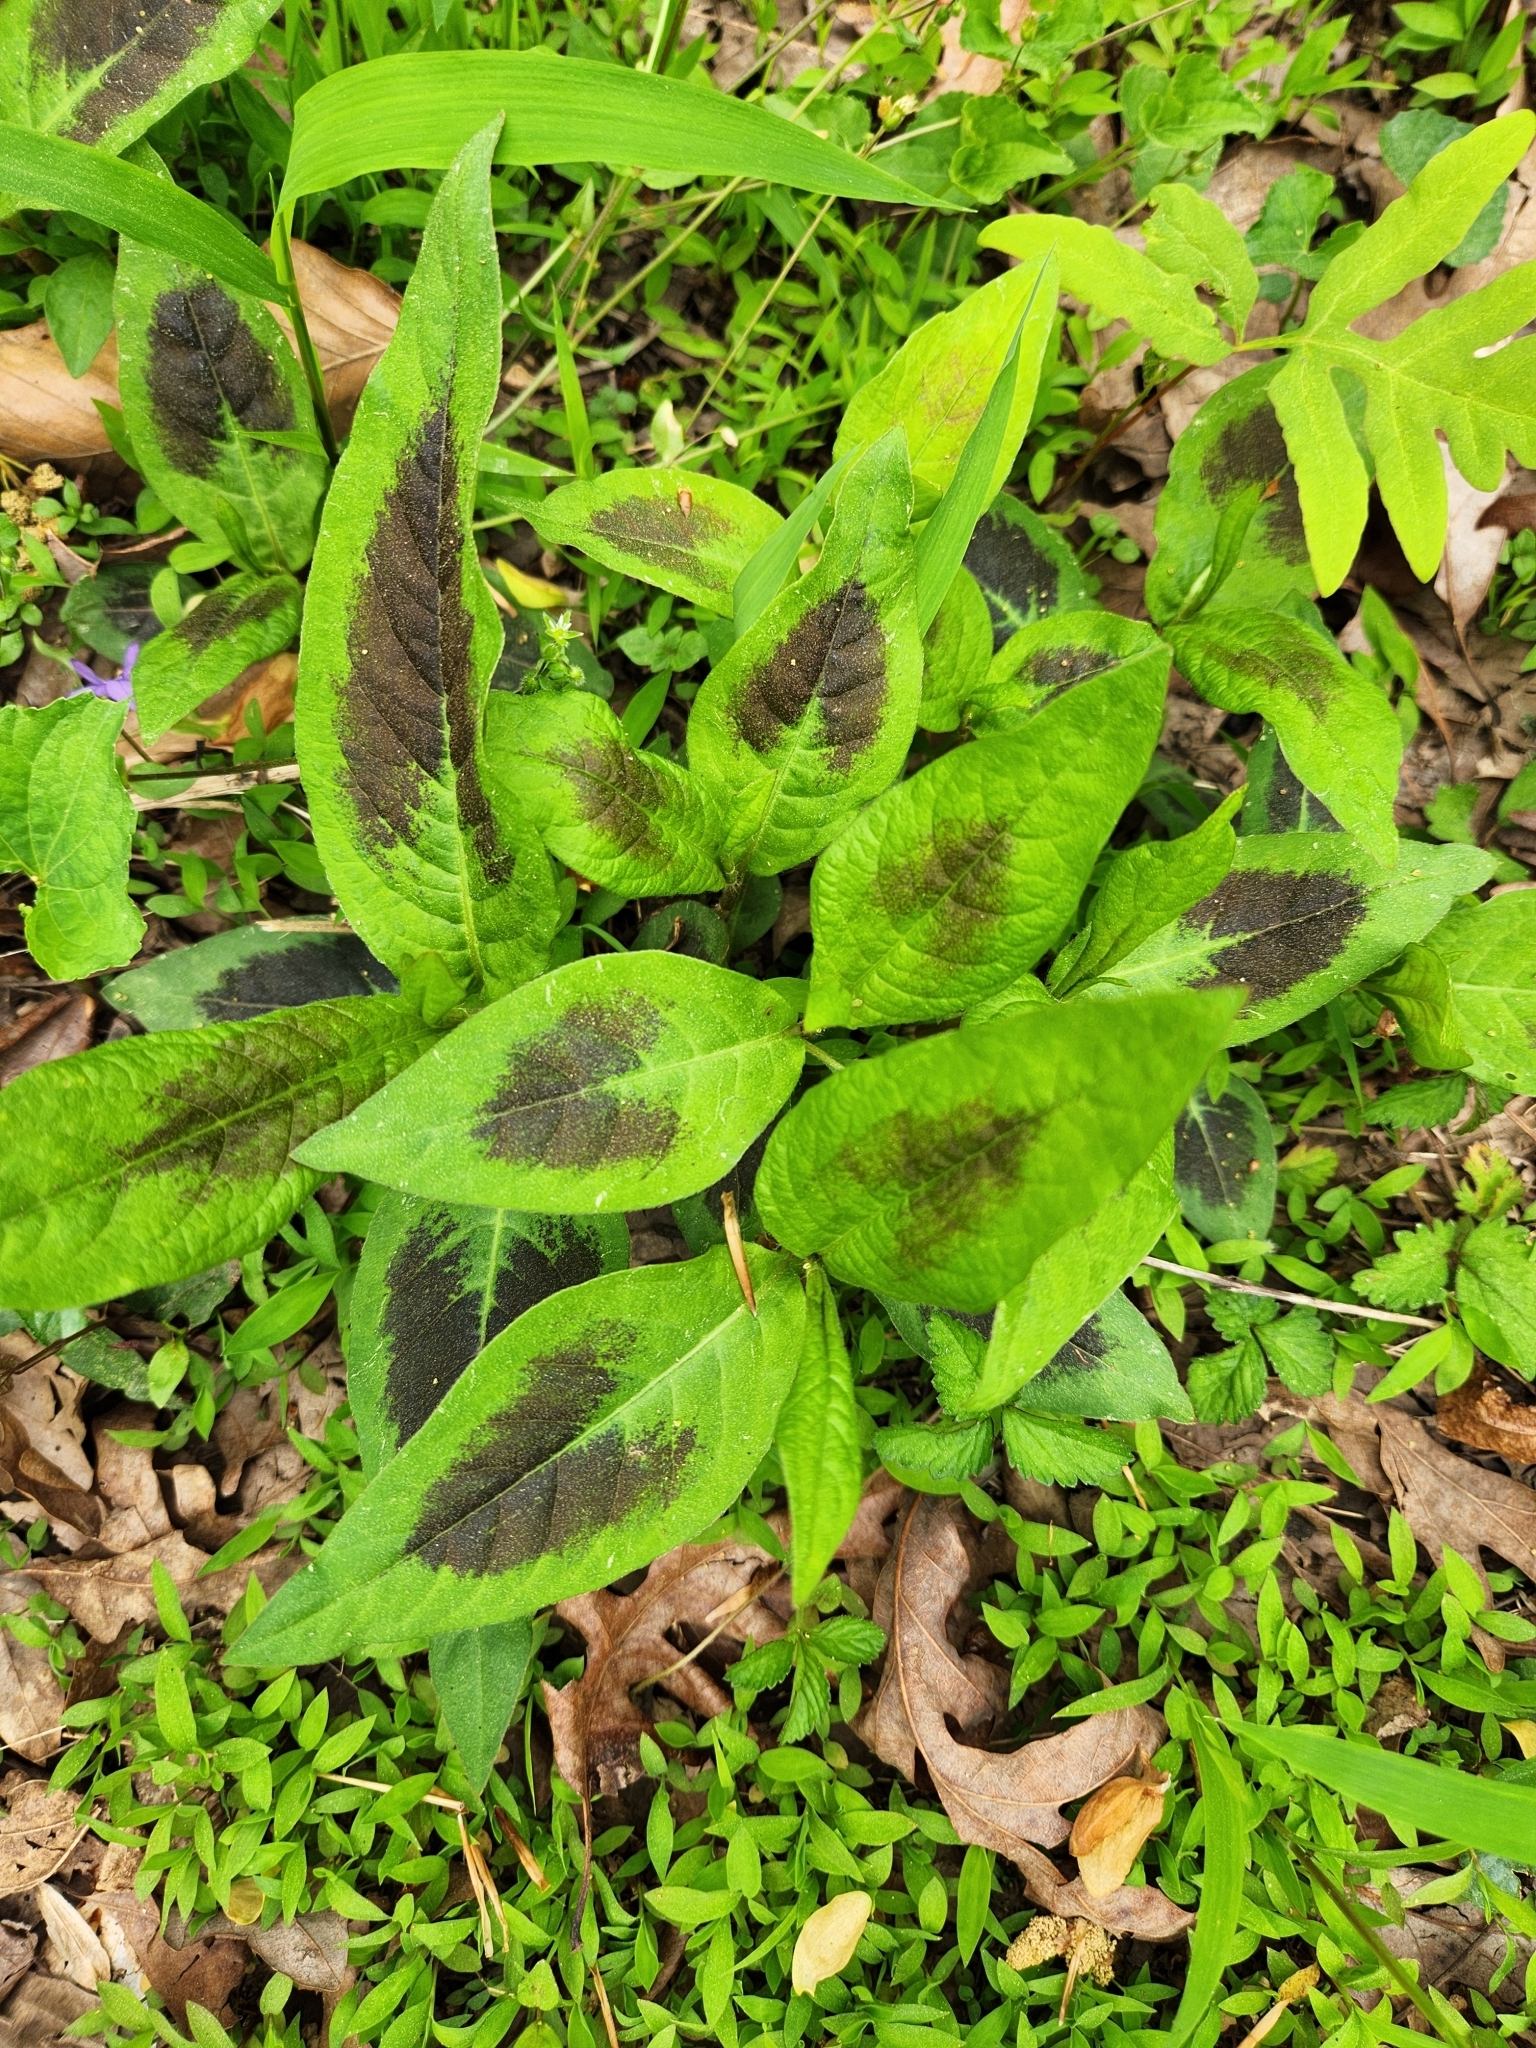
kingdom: Plantae
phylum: Tracheophyta
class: Magnoliopsida
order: Caryophyllales
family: Polygonaceae
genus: Persicaria
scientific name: Persicaria virginiana
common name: Jumpseed
